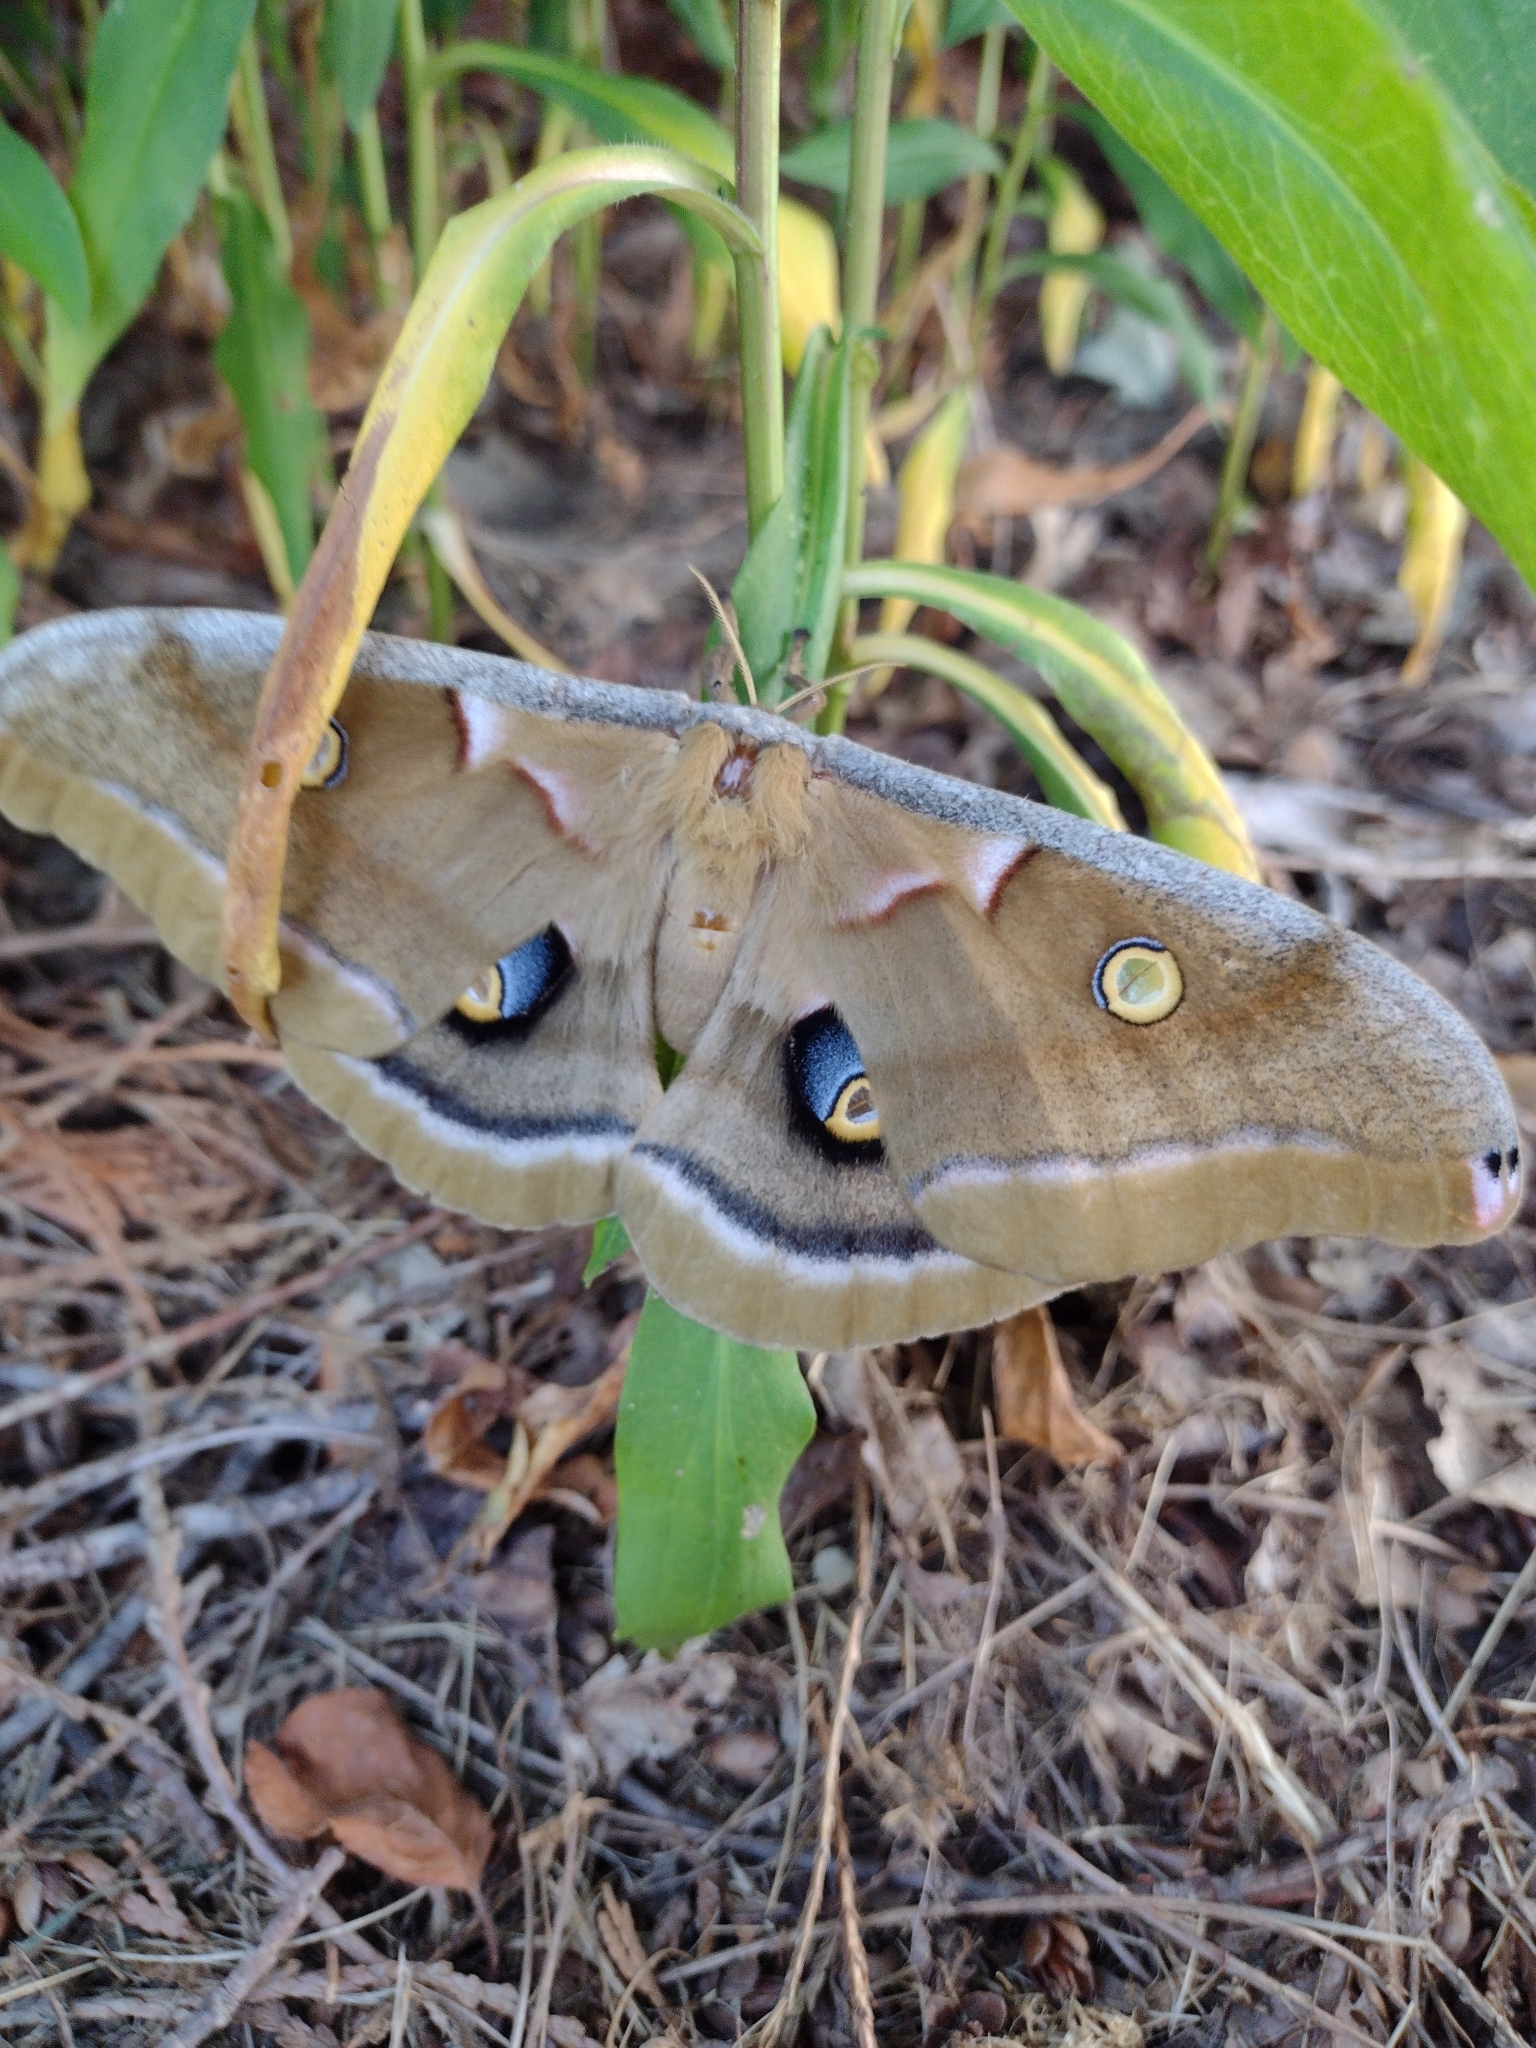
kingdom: Animalia
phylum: Arthropoda
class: Insecta
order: Lepidoptera
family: Saturniidae
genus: Antheraea
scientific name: Antheraea polyphemus
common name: Polyphemus moth
